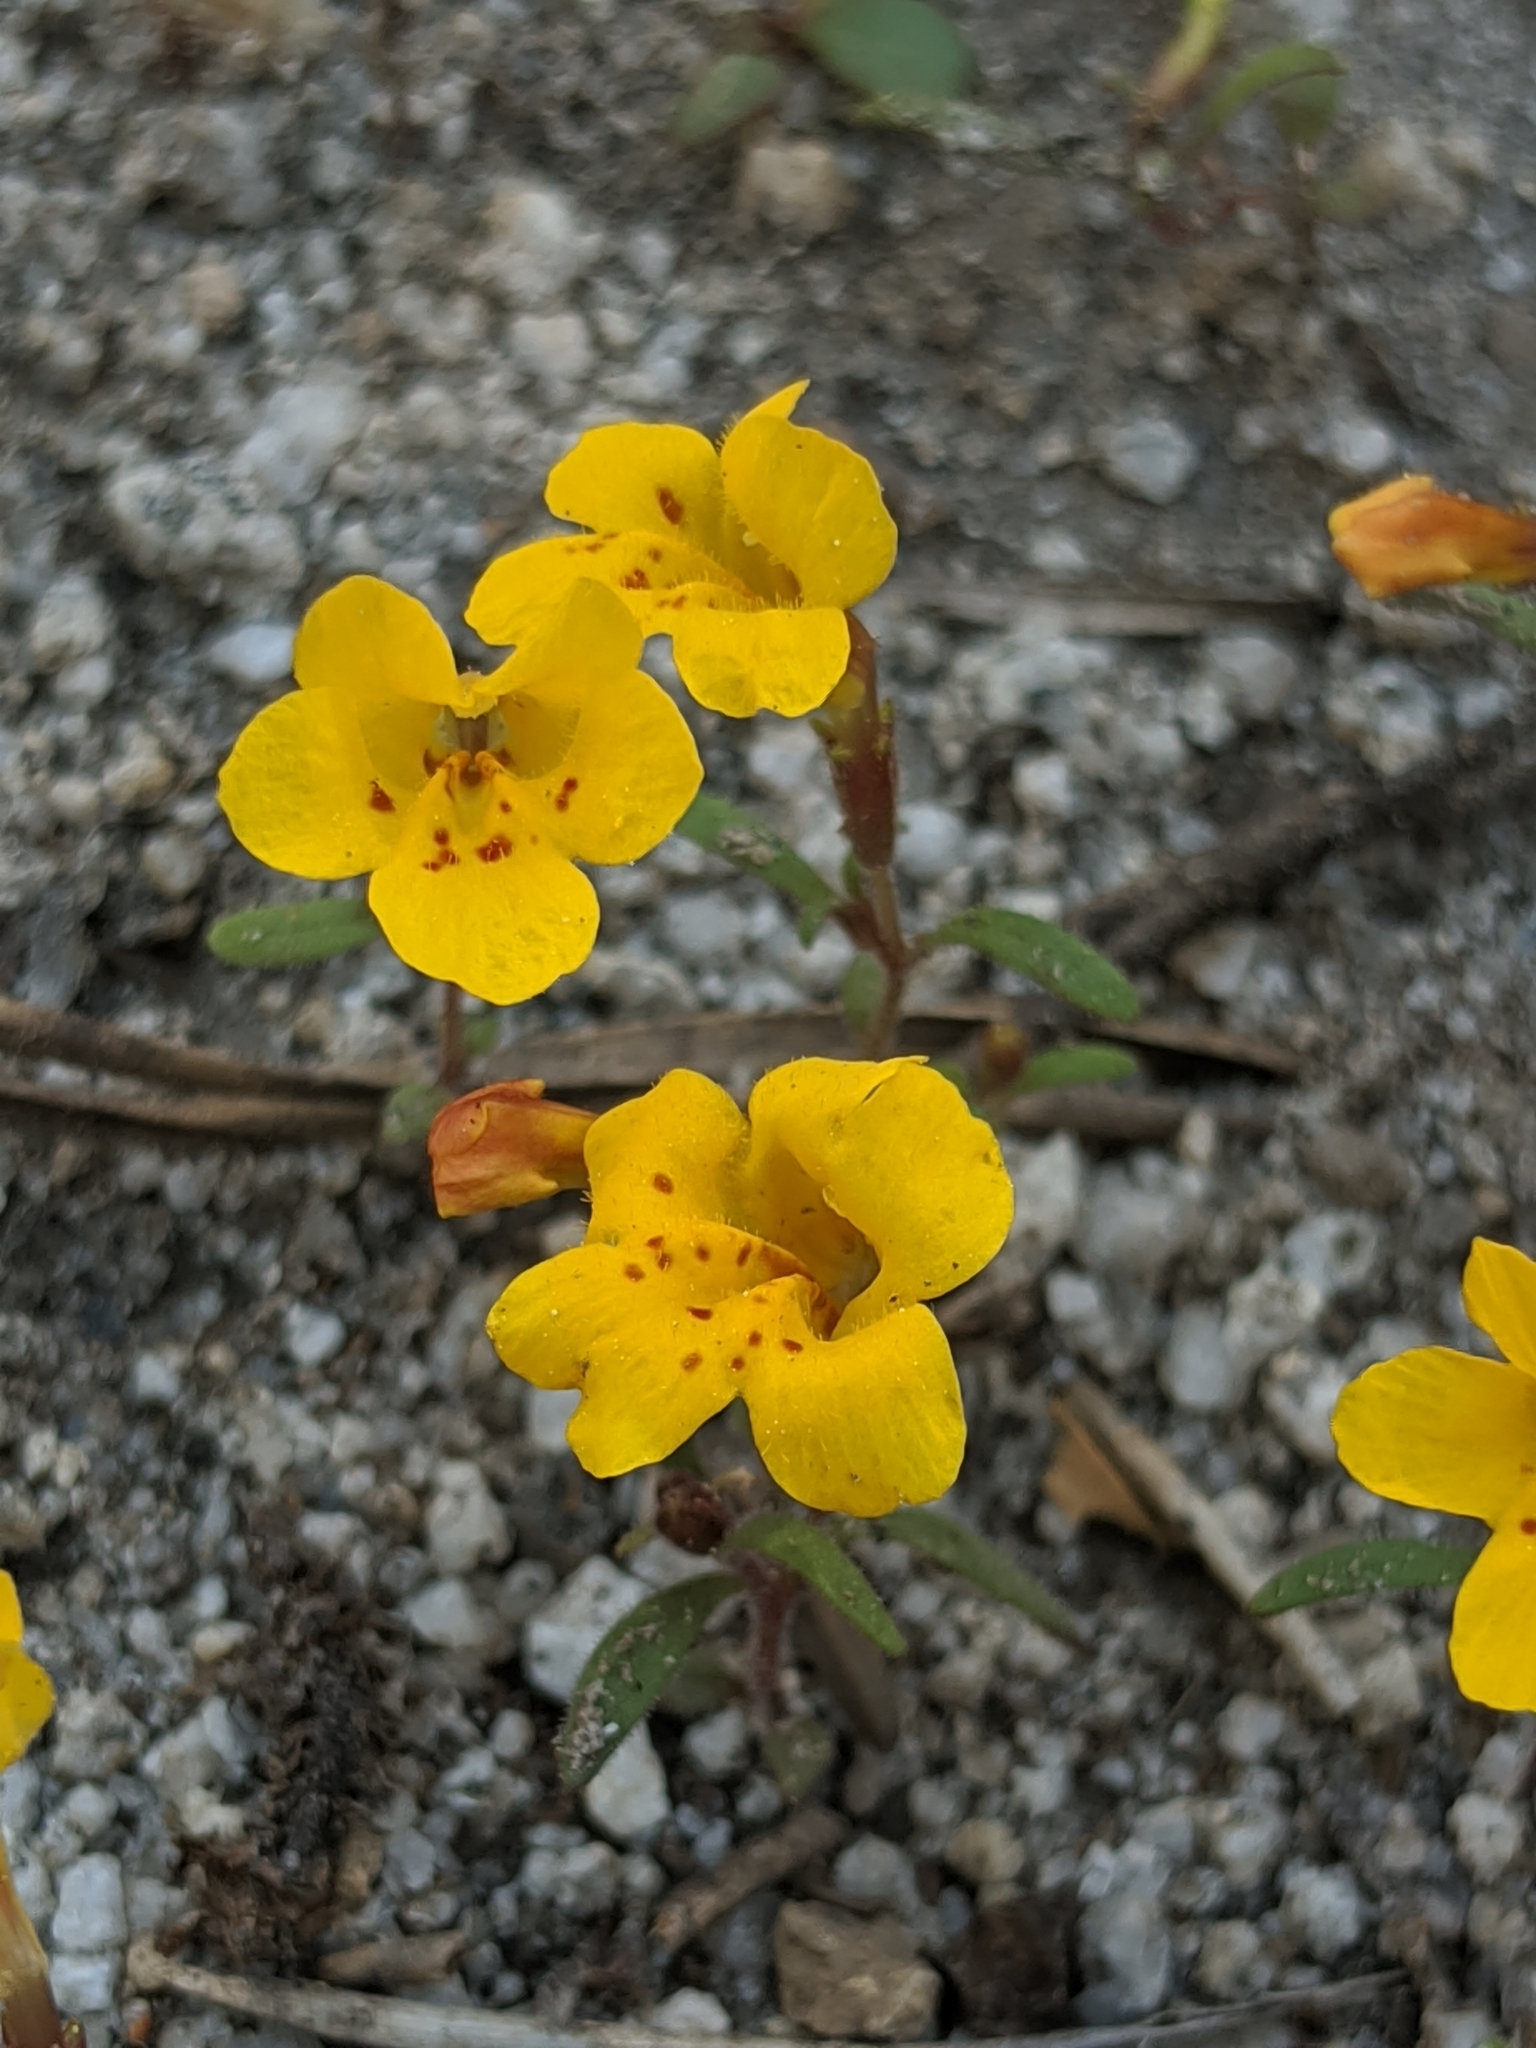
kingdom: Plantae
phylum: Tracheophyta
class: Magnoliopsida
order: Lamiales
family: Phrymaceae
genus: Erythranthe
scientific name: Erythranthe montioides
